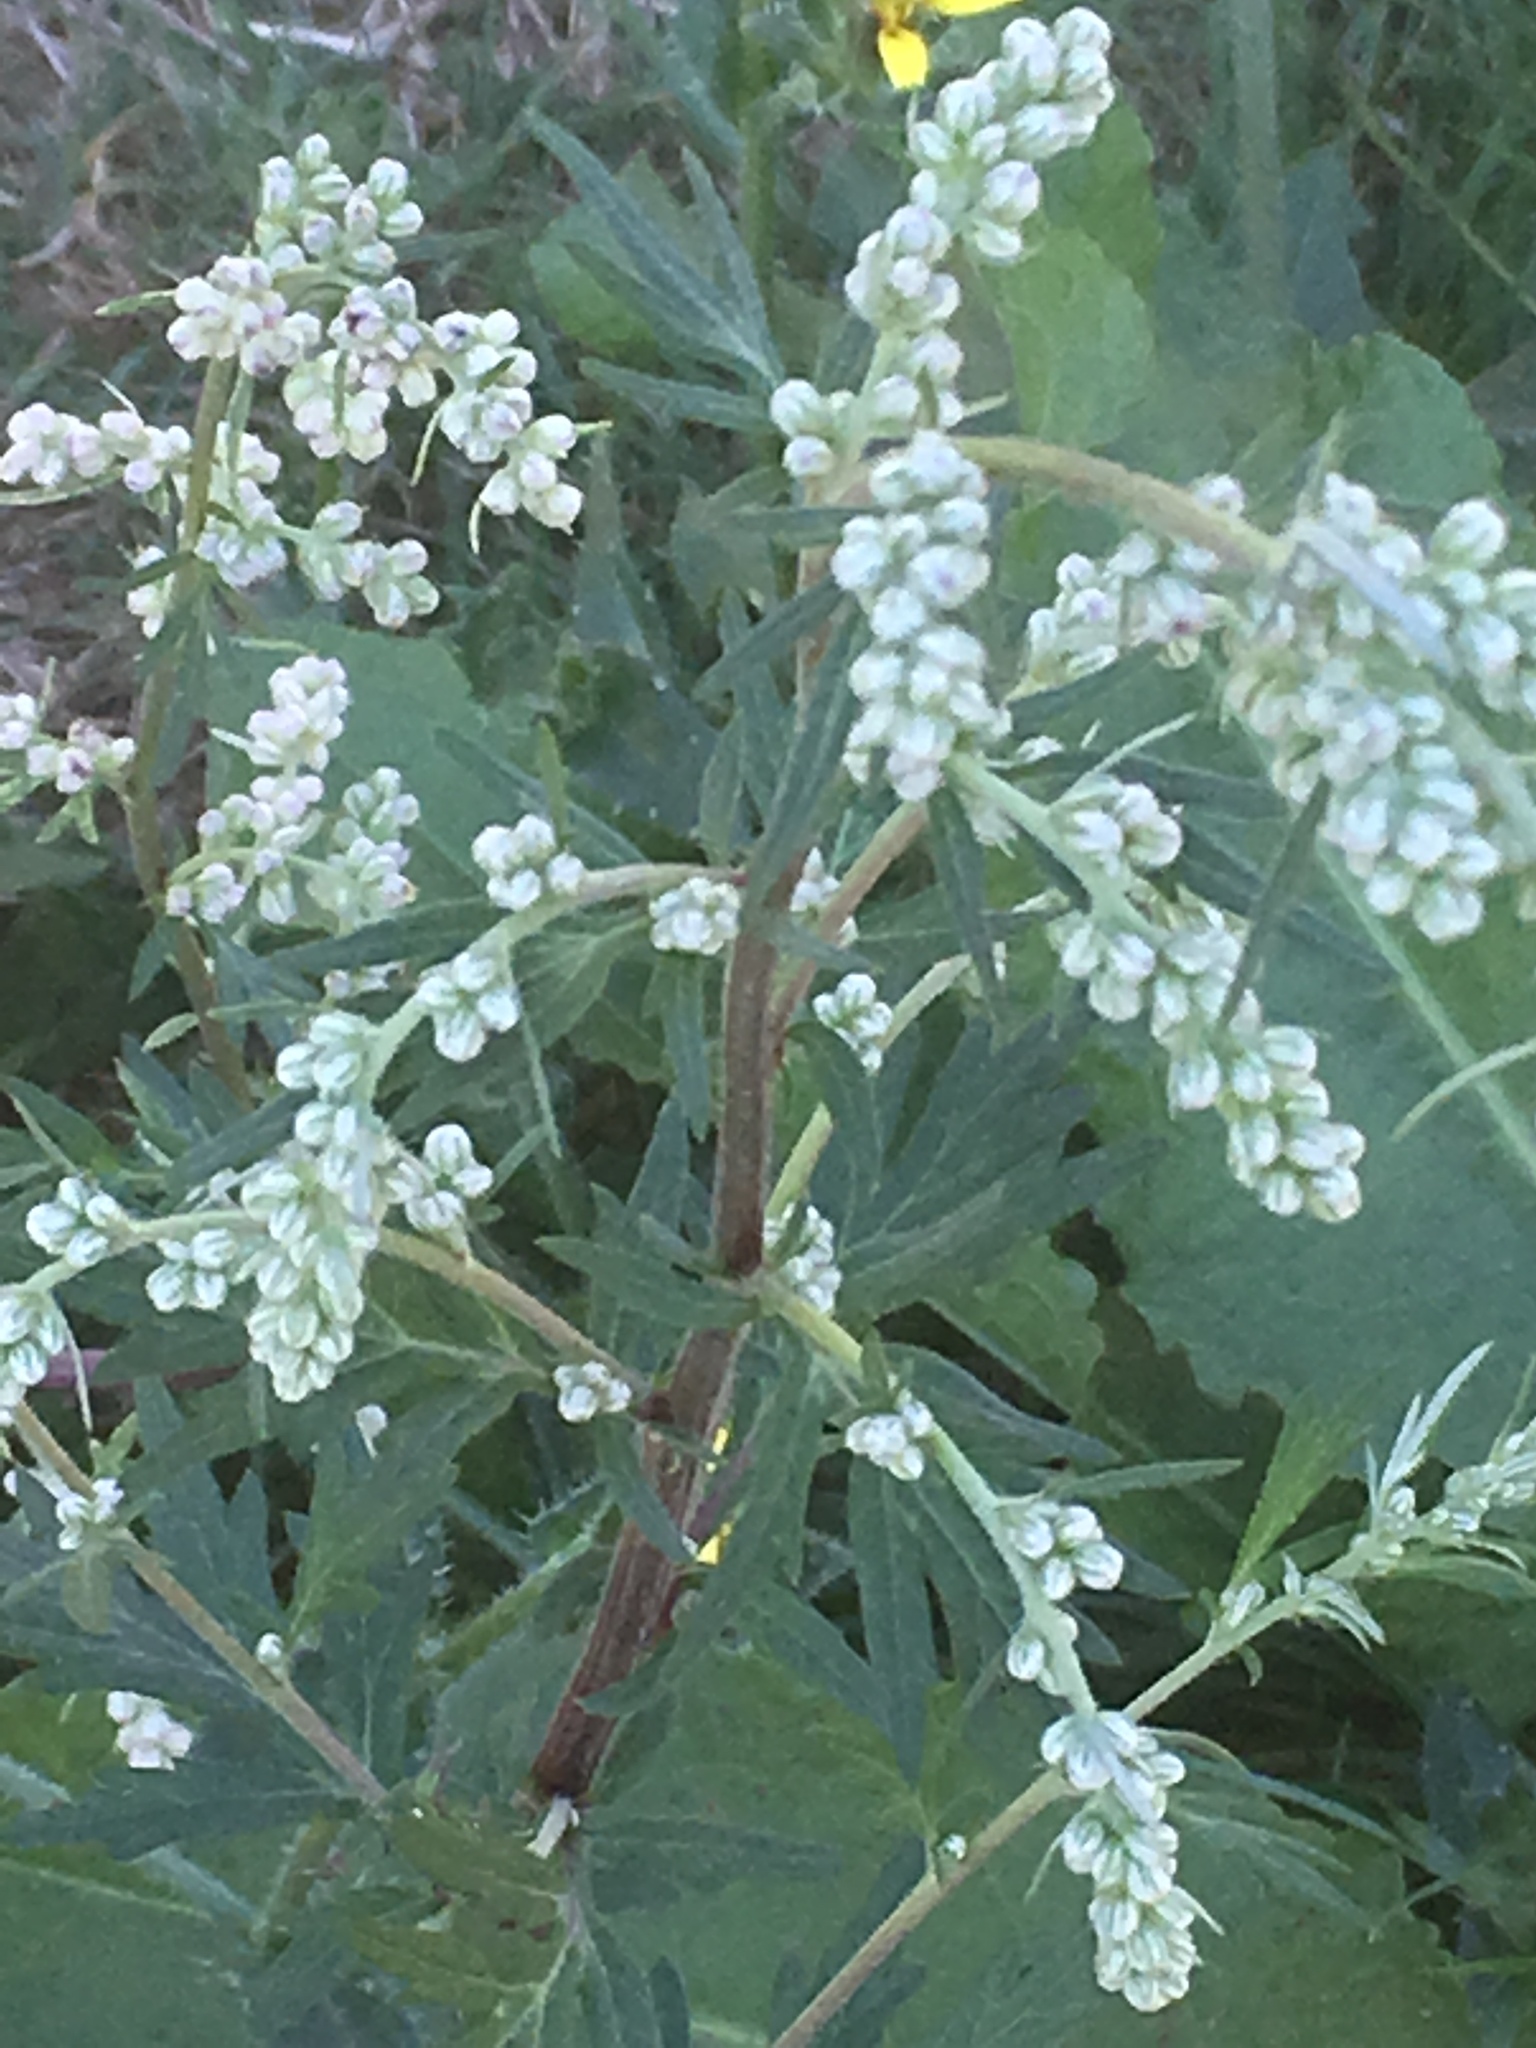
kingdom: Plantae
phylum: Tracheophyta
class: Magnoliopsida
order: Asterales
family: Asteraceae
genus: Artemisia
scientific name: Artemisia vulgaris
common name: Mugwort
